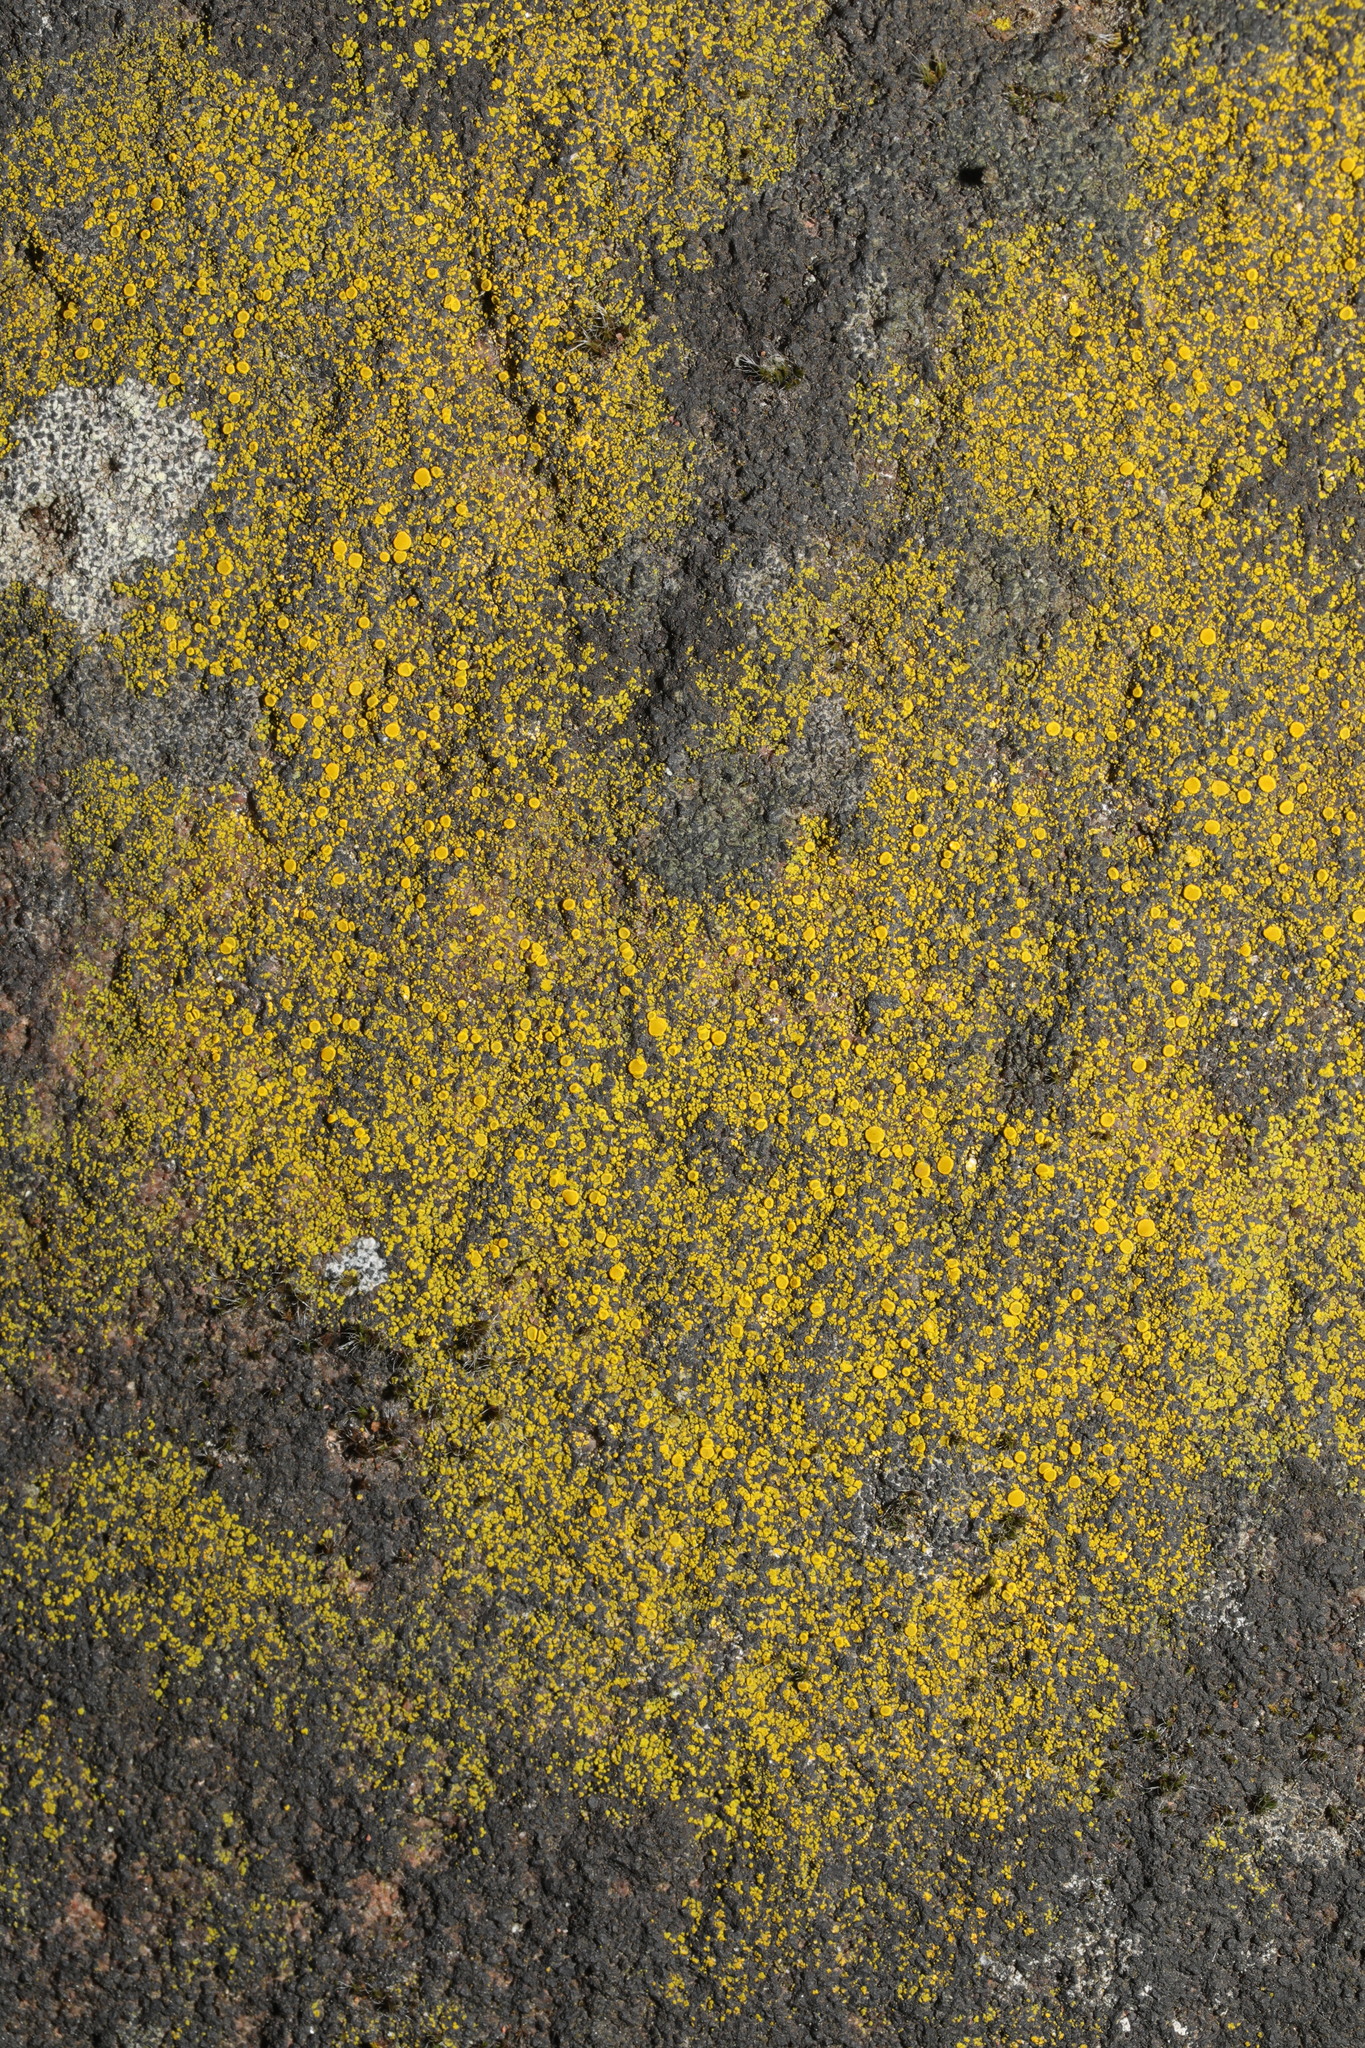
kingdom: Fungi
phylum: Ascomycota
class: Candelariomycetes
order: Candelariales
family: Candelariaceae
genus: Candelariella
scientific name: Candelariella vitellina
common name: Common goldspeck
